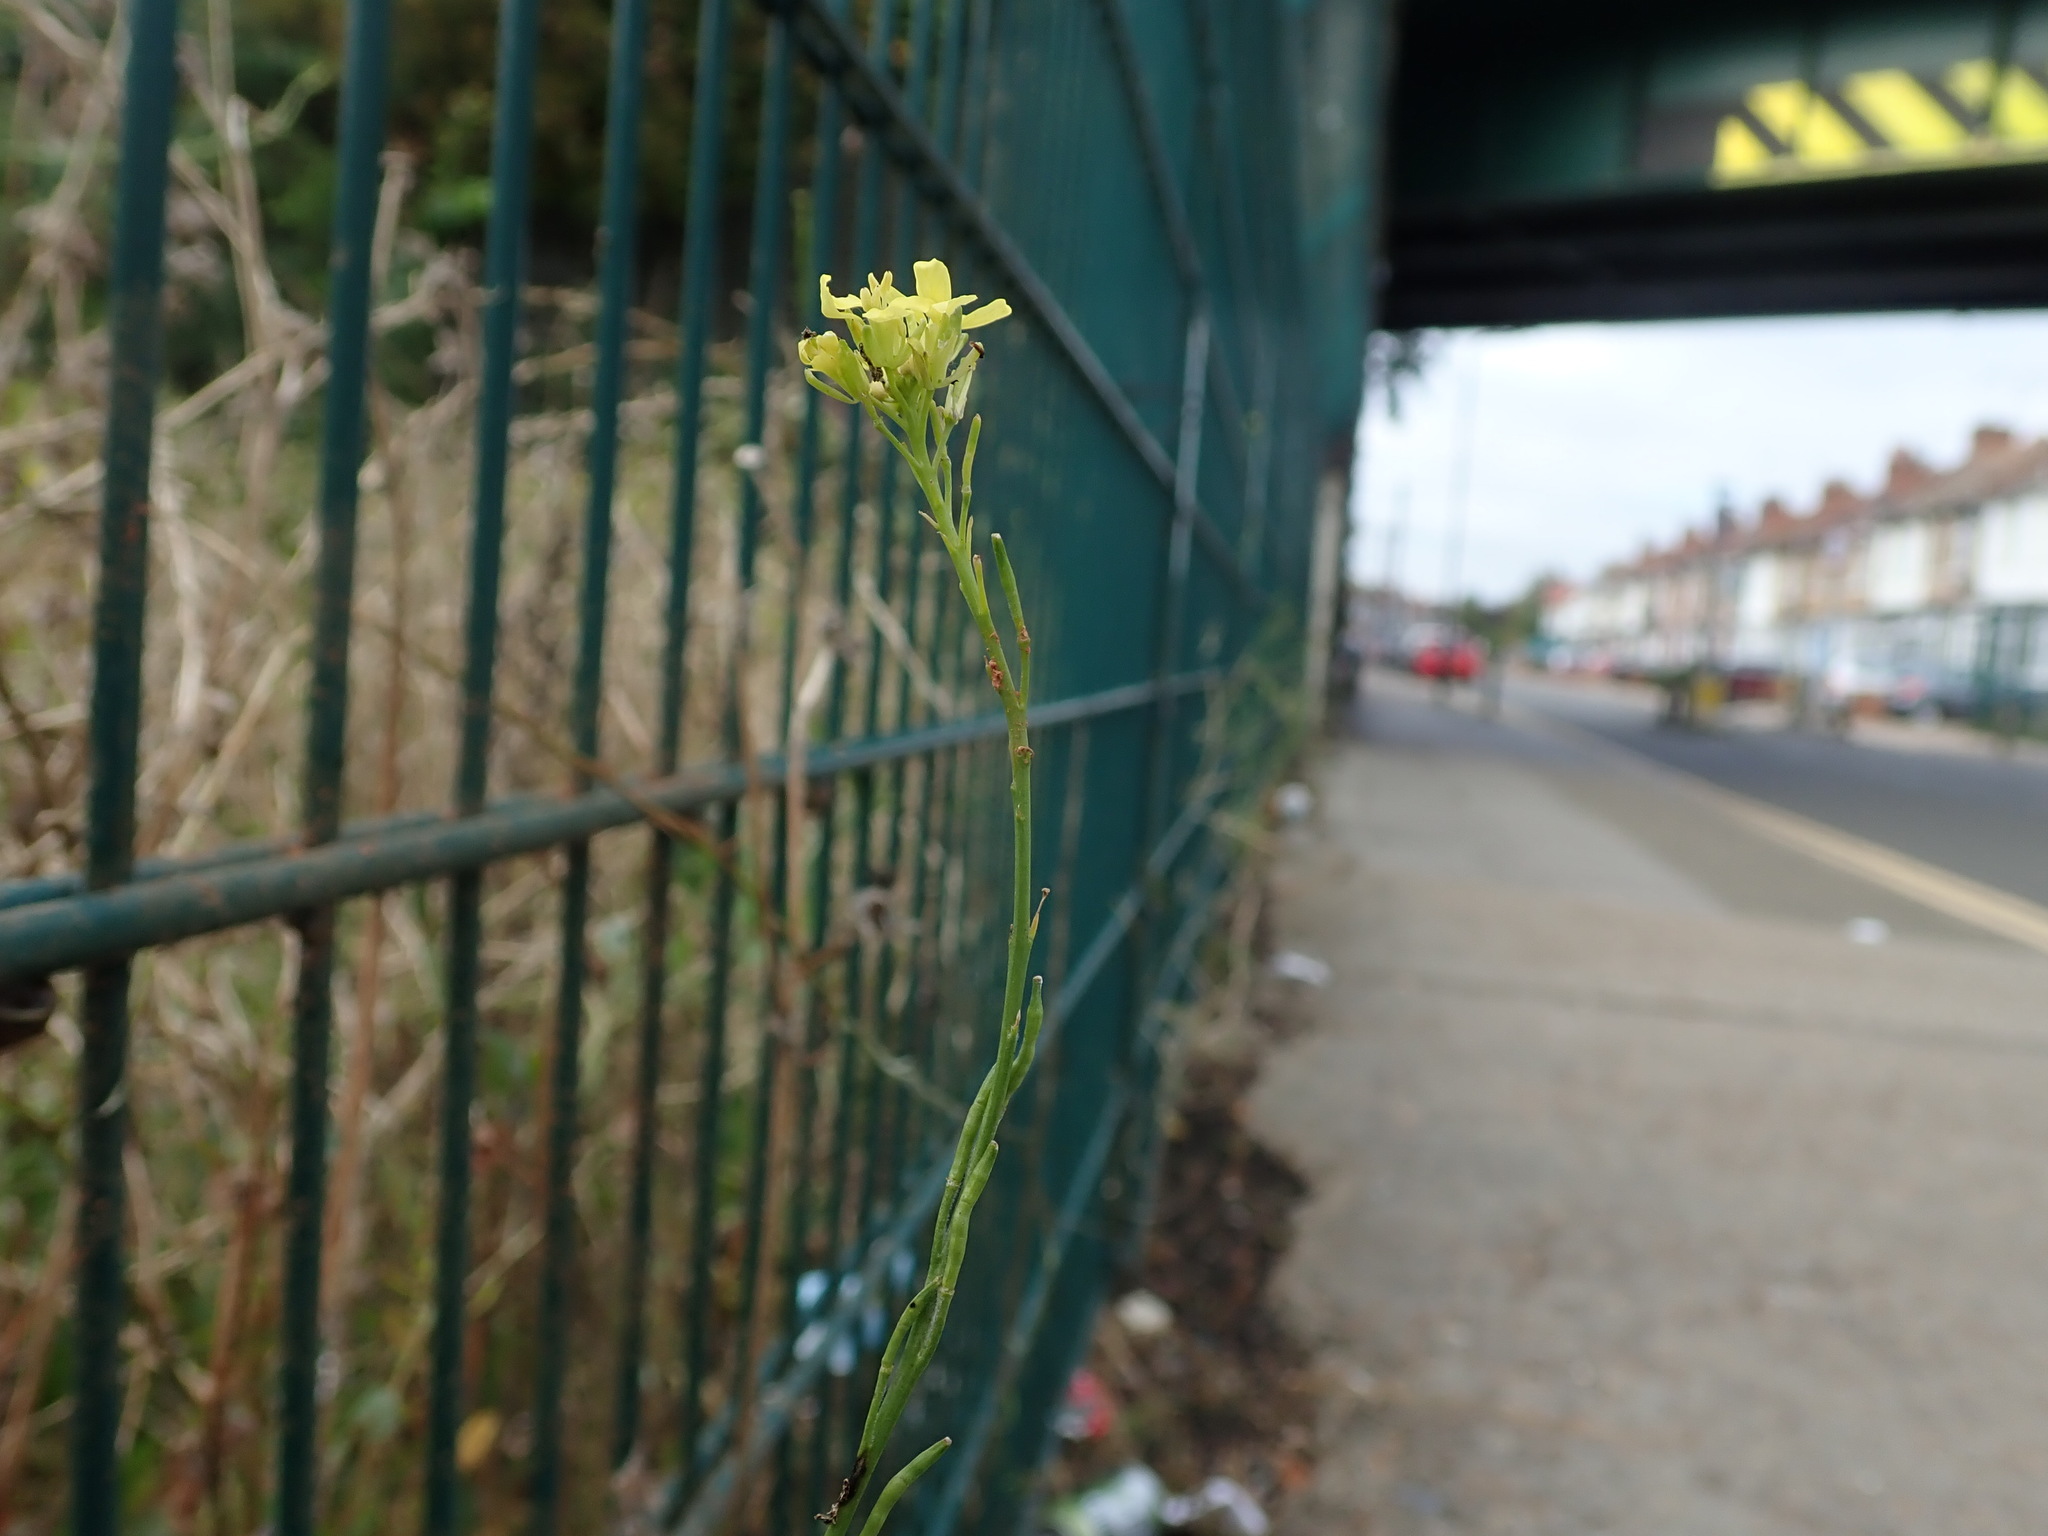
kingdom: Plantae
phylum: Tracheophyta
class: Magnoliopsida
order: Brassicales
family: Brassicaceae
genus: Hirschfeldia
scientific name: Hirschfeldia incana
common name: Hoary mustard
